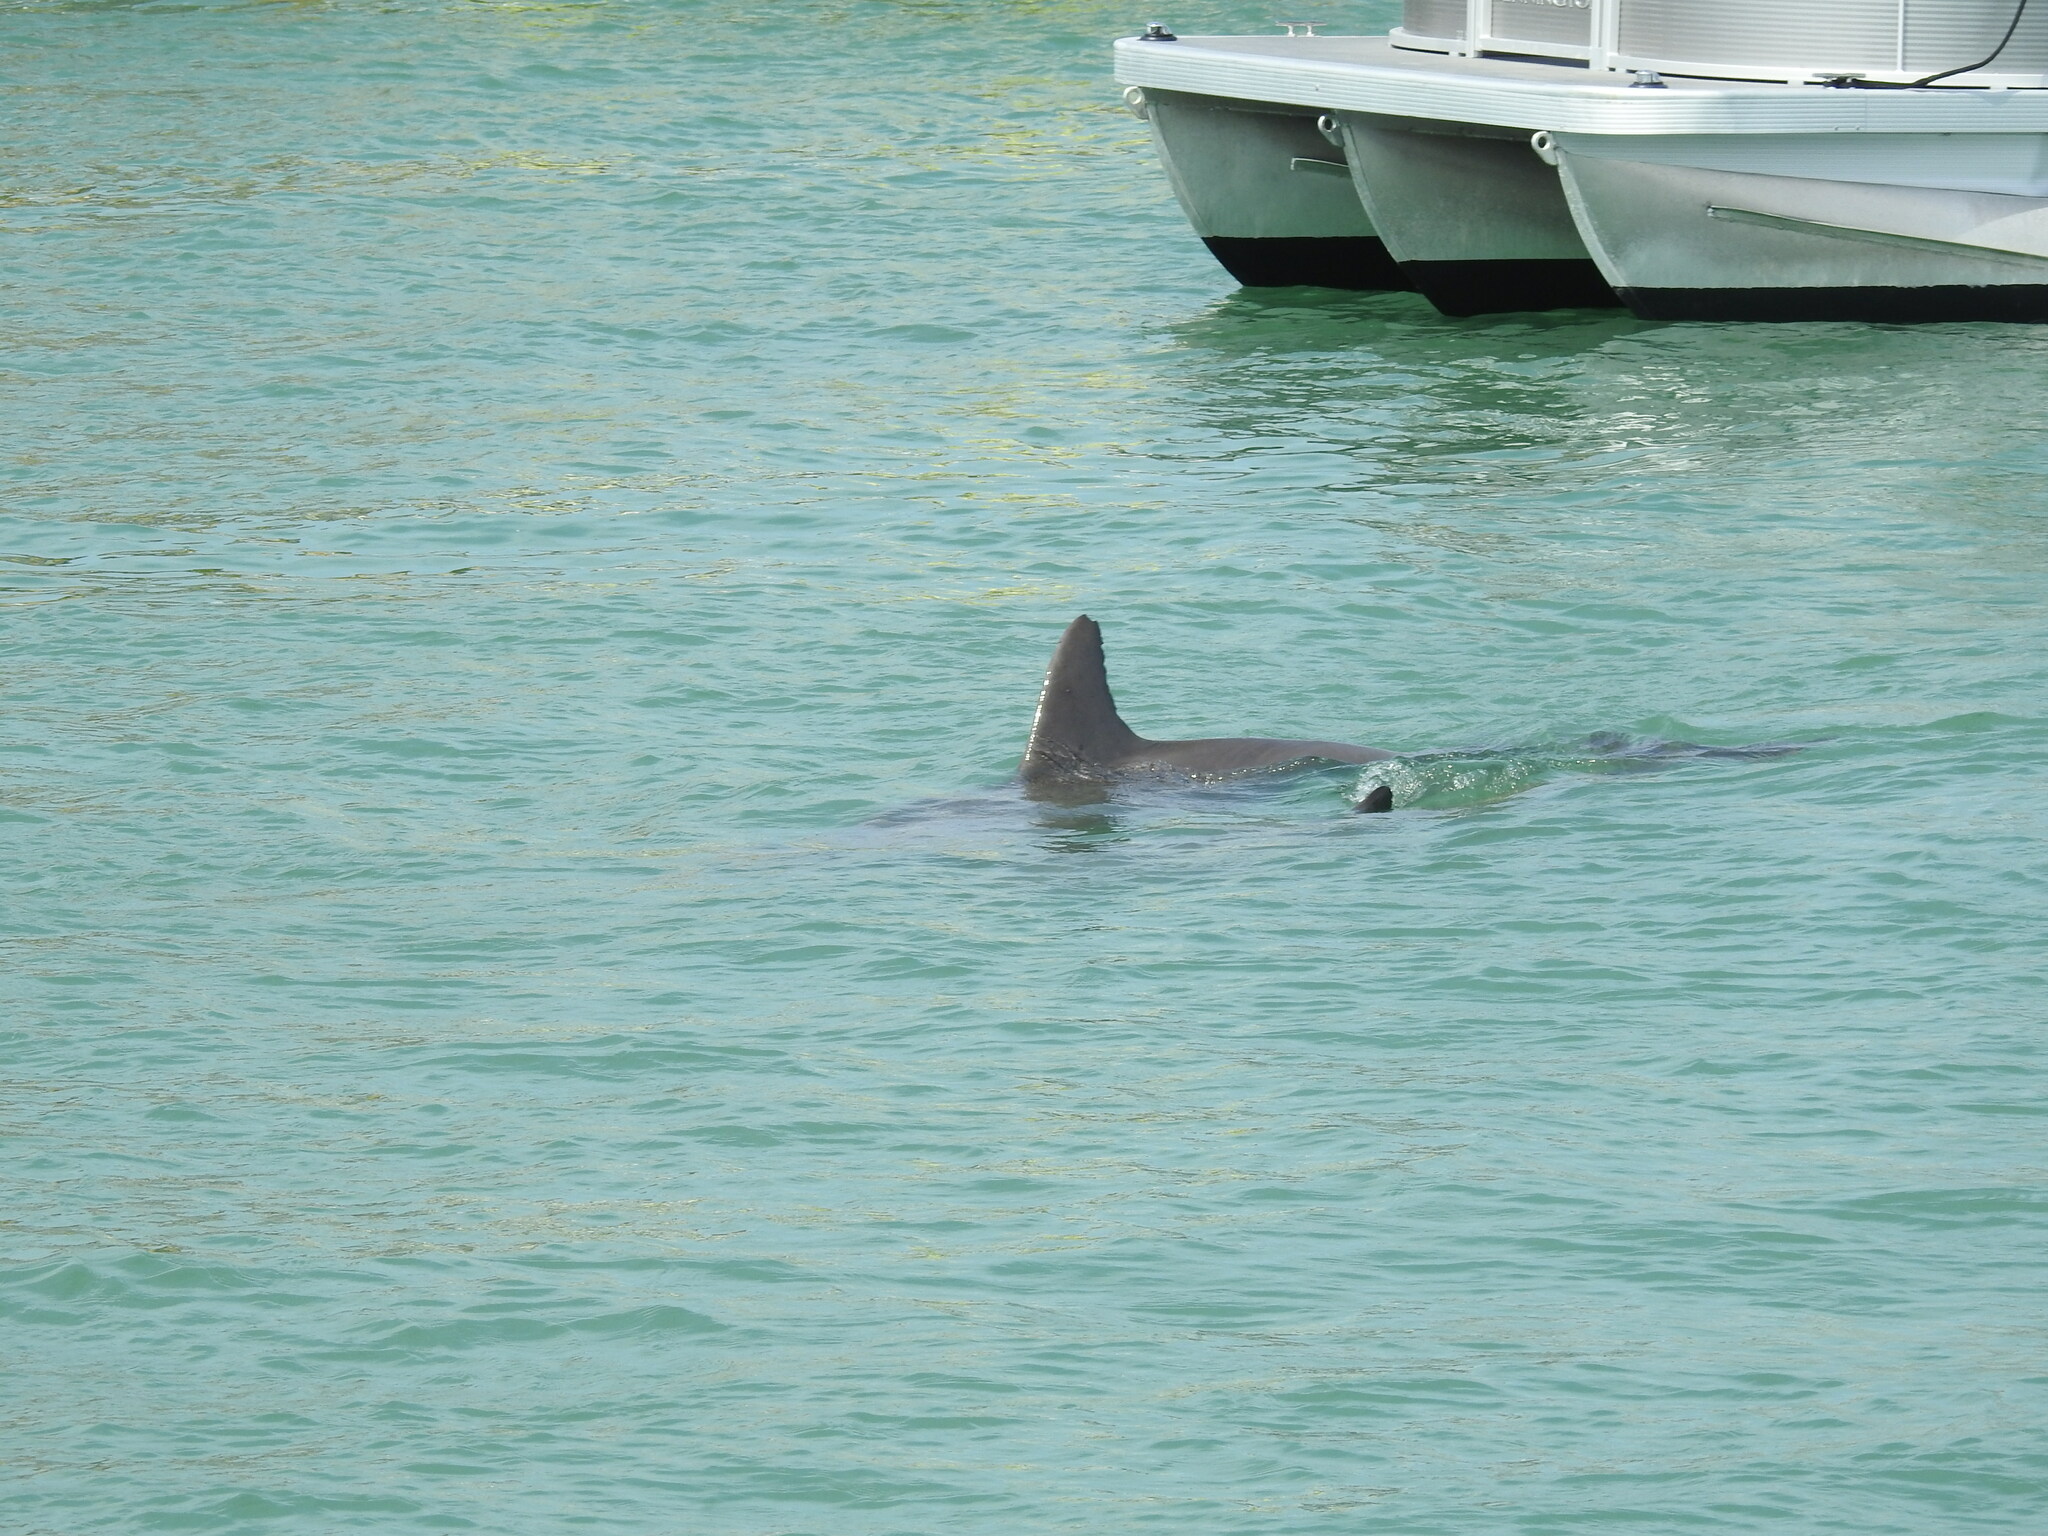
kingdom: Animalia
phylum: Chordata
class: Mammalia
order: Cetacea
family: Delphinidae
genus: Tursiops
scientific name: Tursiops truncatus
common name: Bottlenose dolphin
